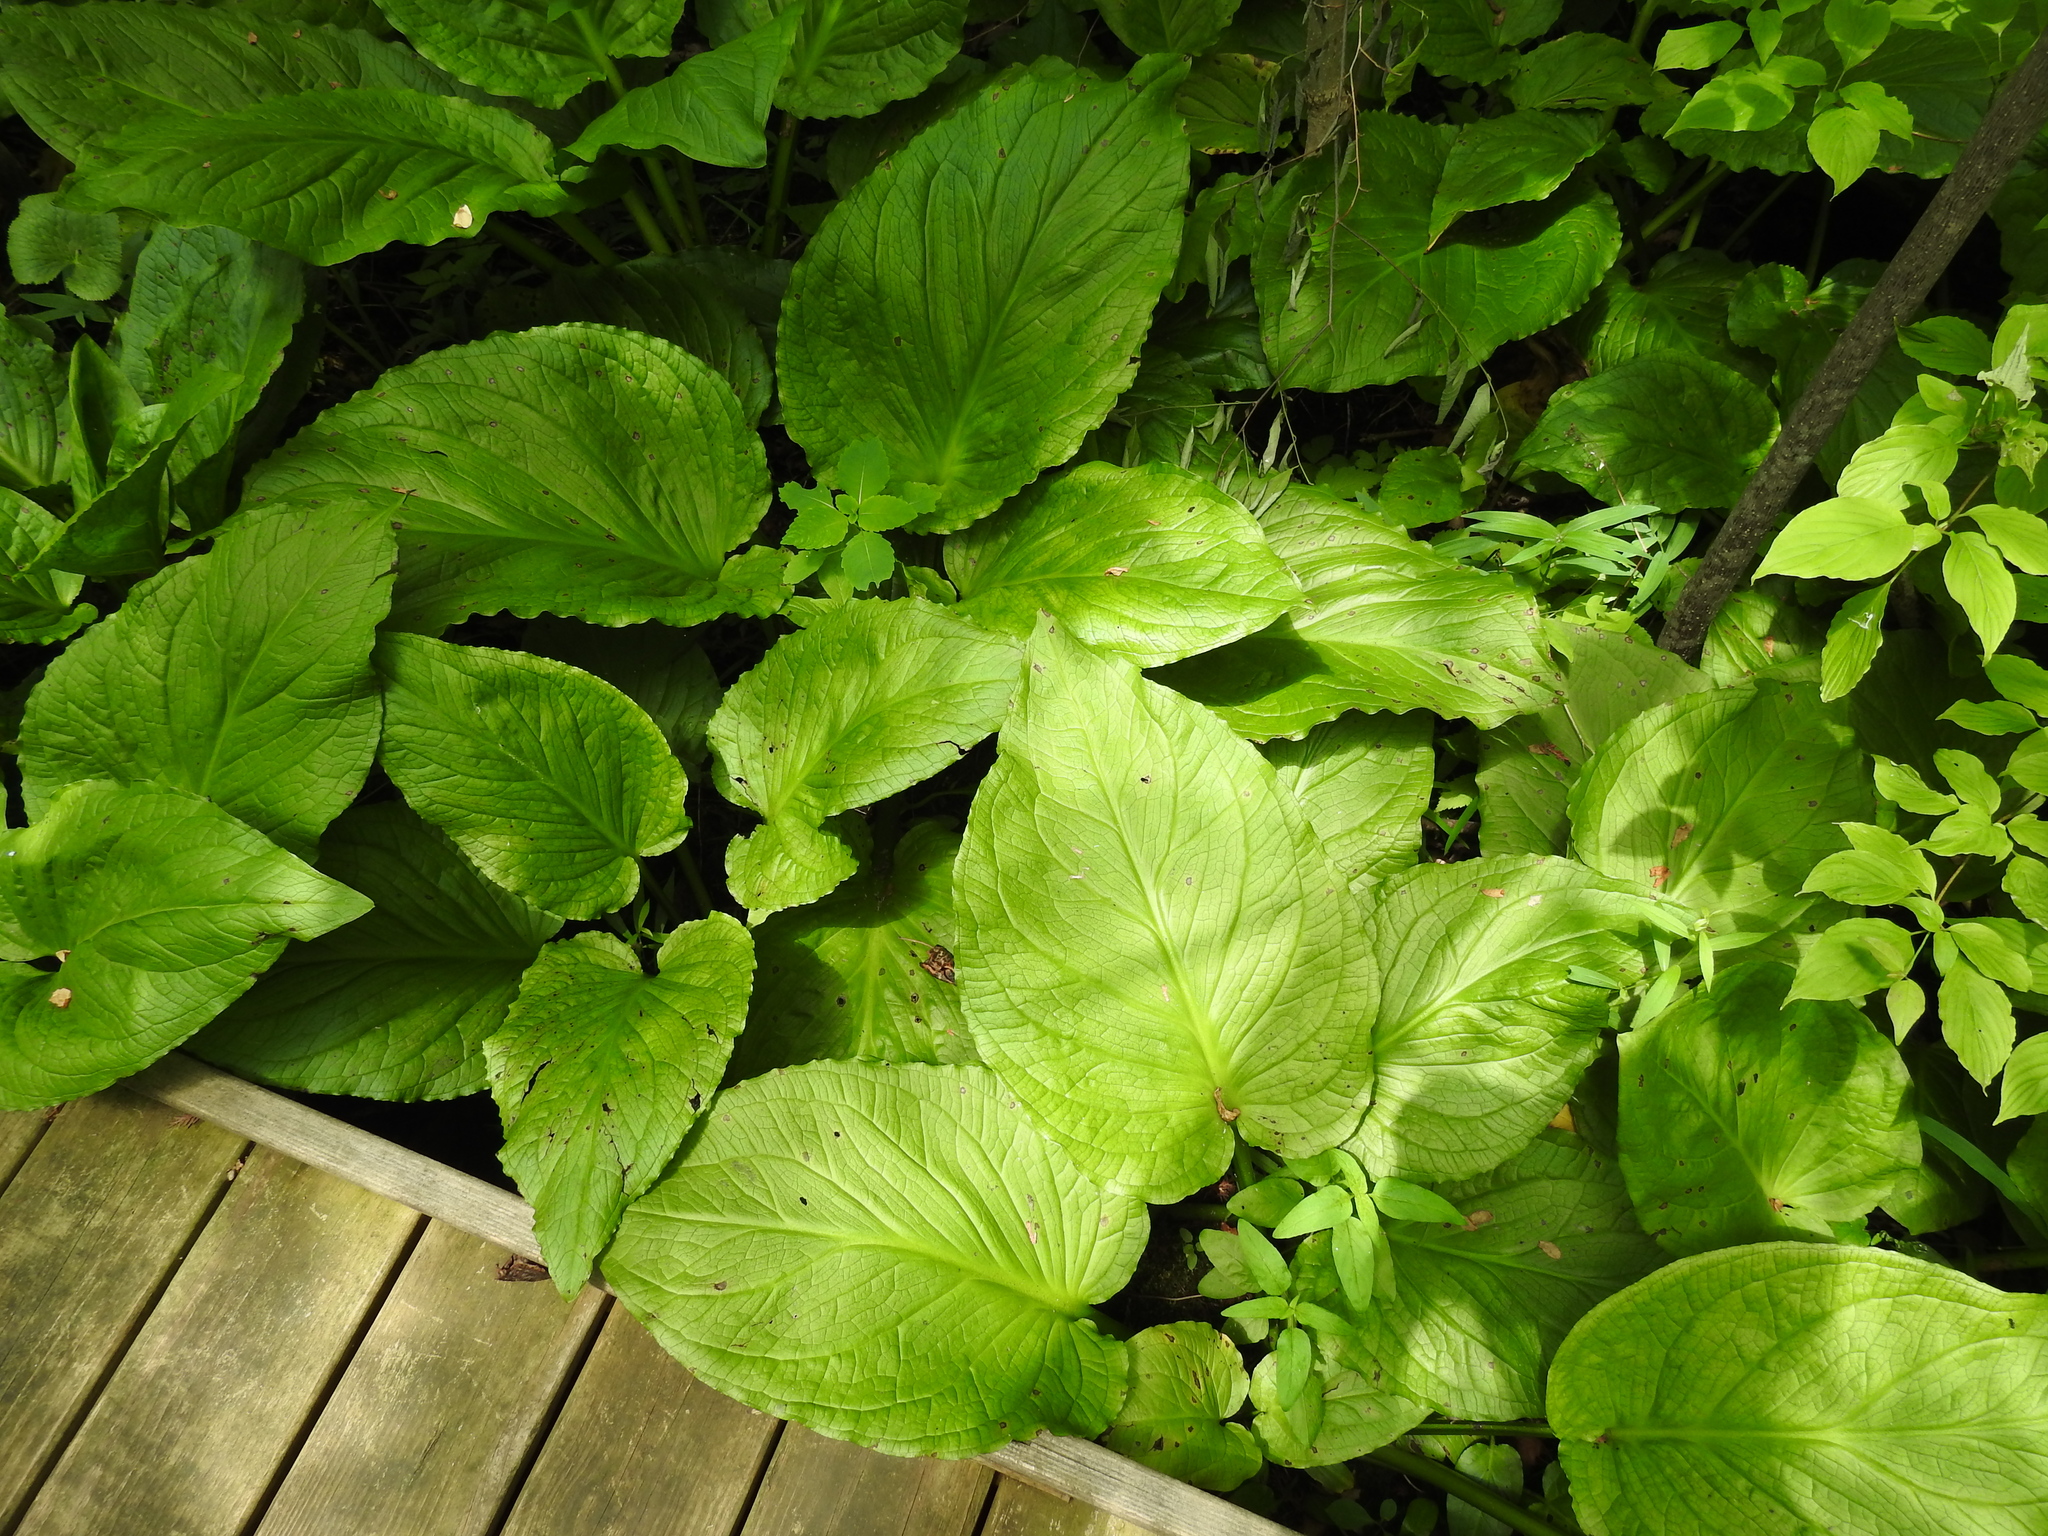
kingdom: Plantae
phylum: Tracheophyta
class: Liliopsida
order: Alismatales
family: Araceae
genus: Symplocarpus
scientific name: Symplocarpus foetidus
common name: Eastern skunk cabbage
